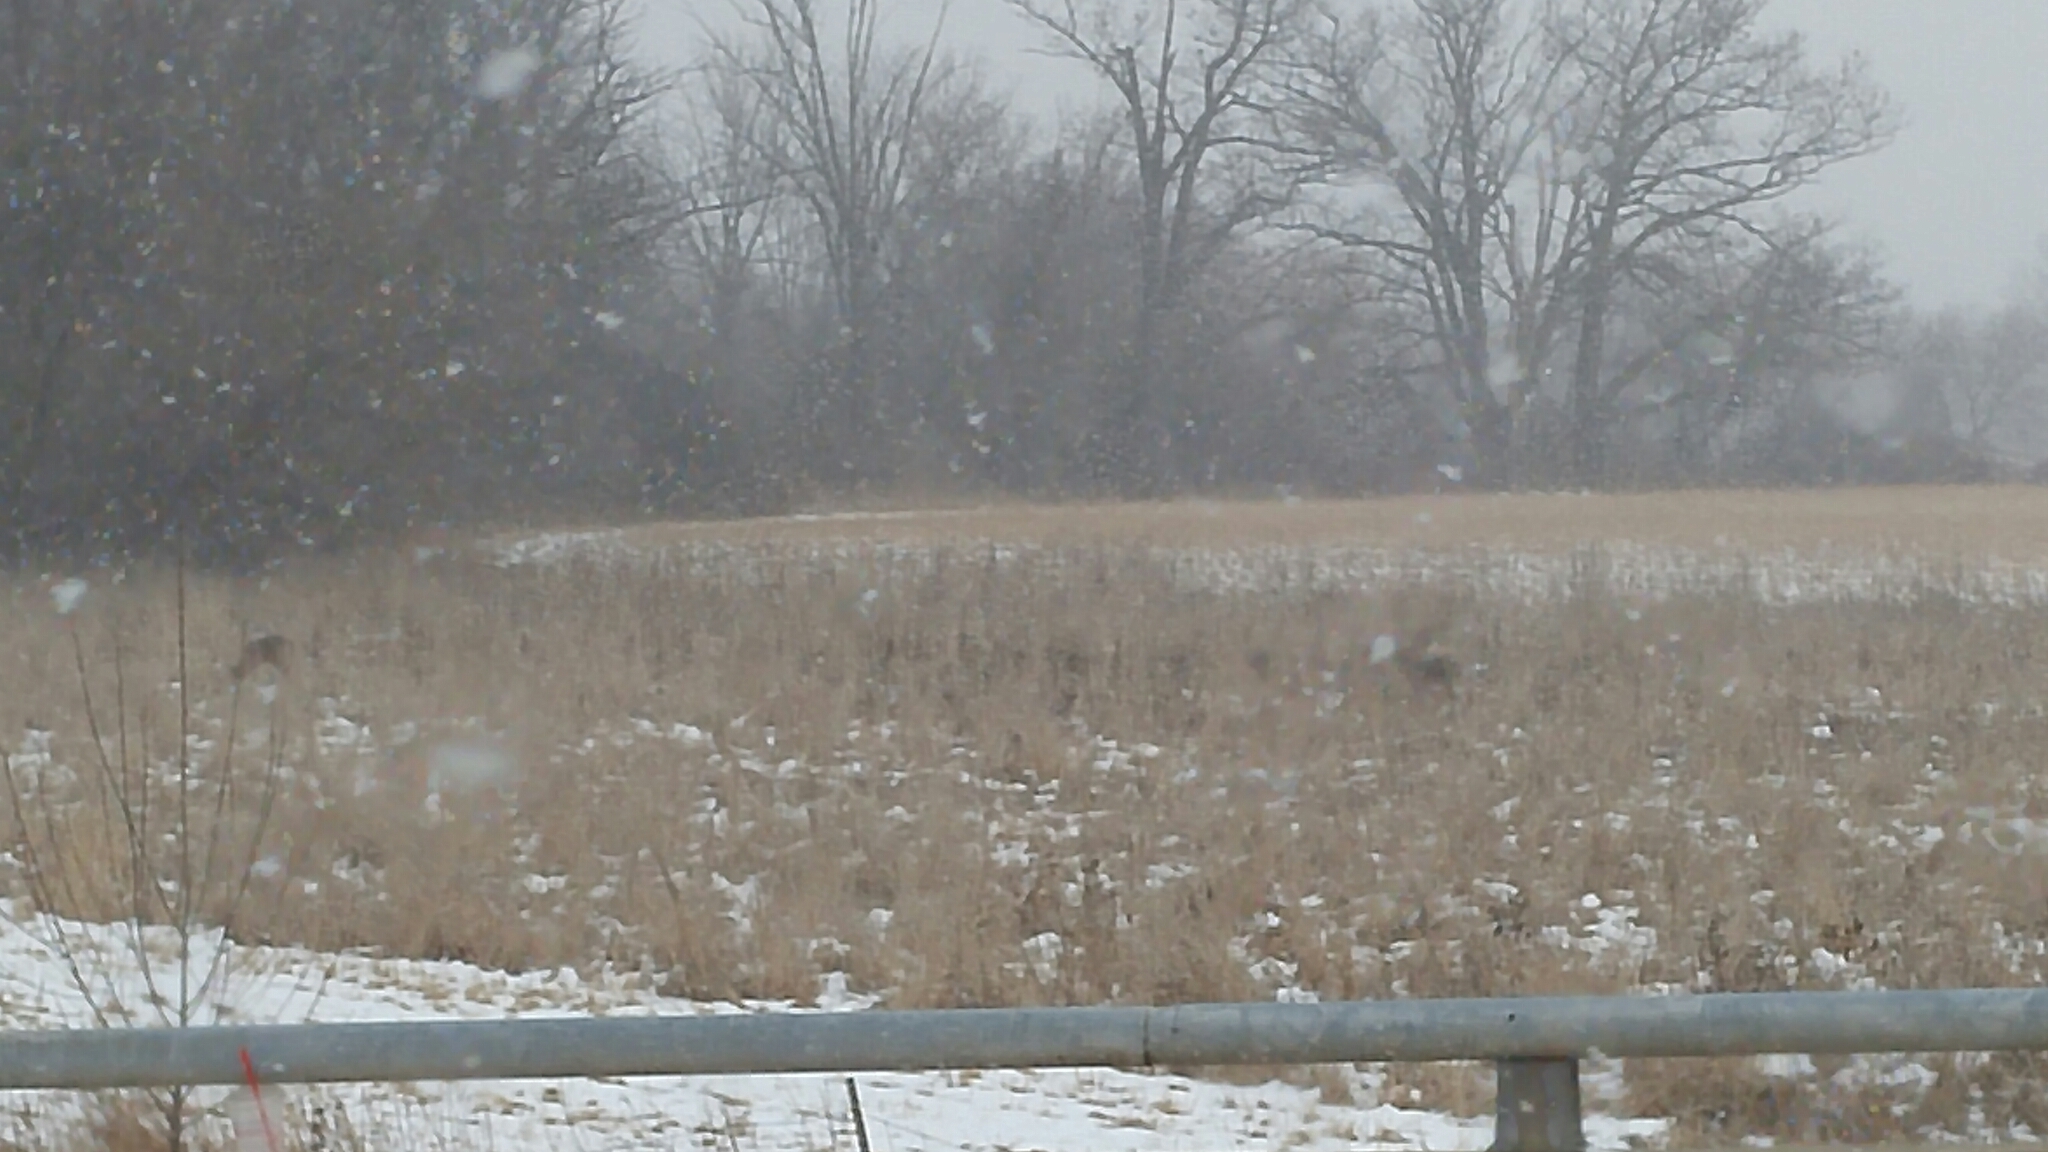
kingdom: Animalia
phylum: Chordata
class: Mammalia
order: Artiodactyla
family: Cervidae
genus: Odocoileus
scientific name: Odocoileus virginianus
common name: White-tailed deer
